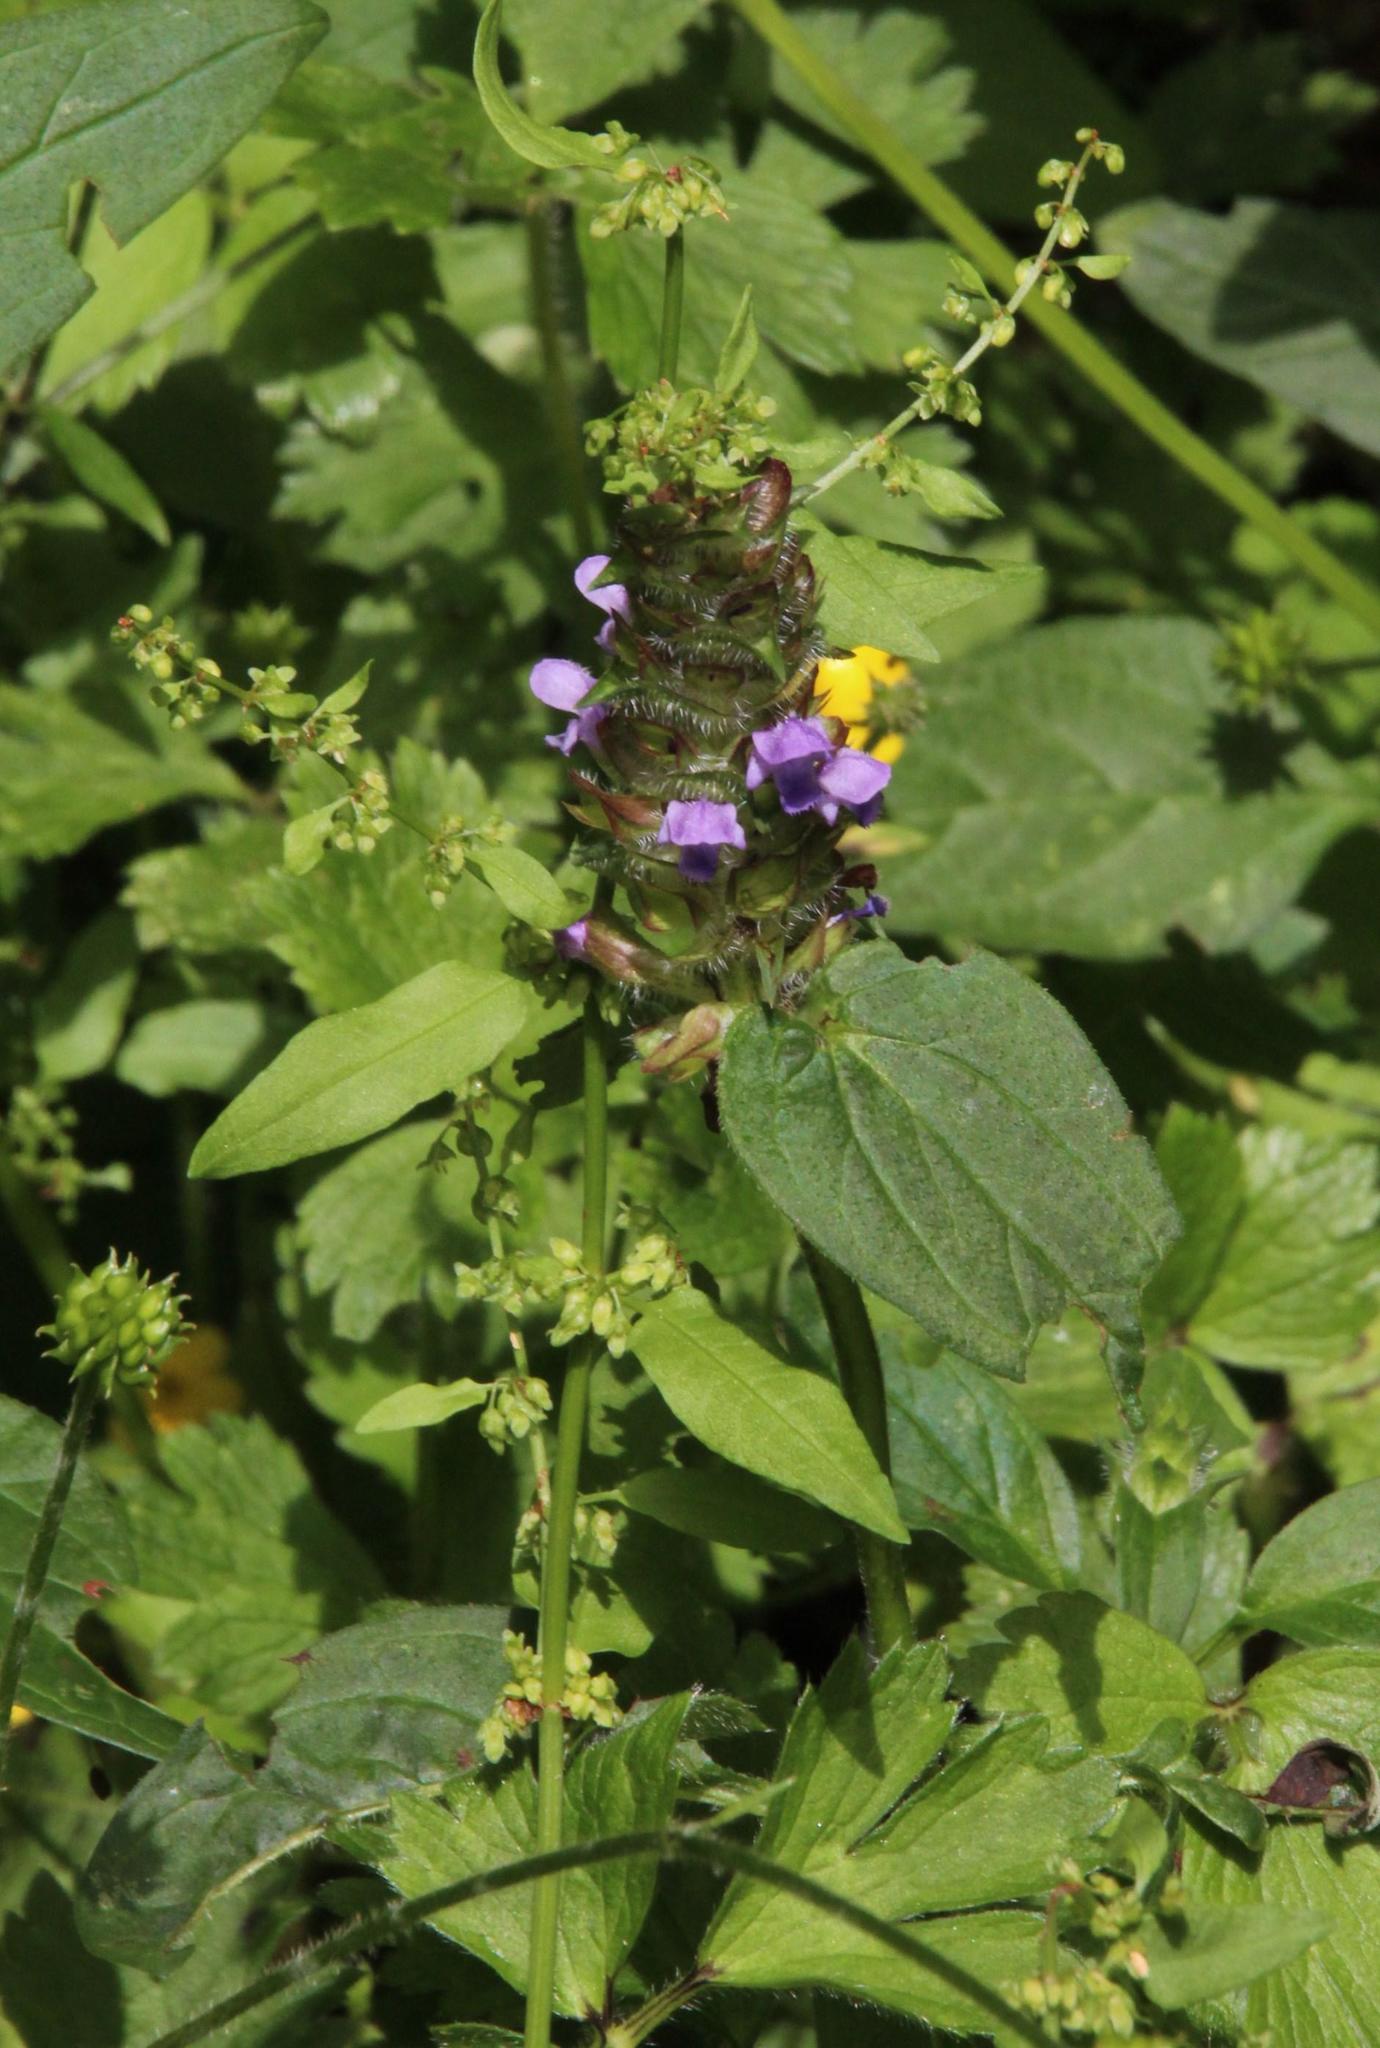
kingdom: Plantae
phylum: Tracheophyta
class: Magnoliopsida
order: Lamiales
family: Lamiaceae
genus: Prunella
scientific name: Prunella vulgaris
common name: Heal-all
